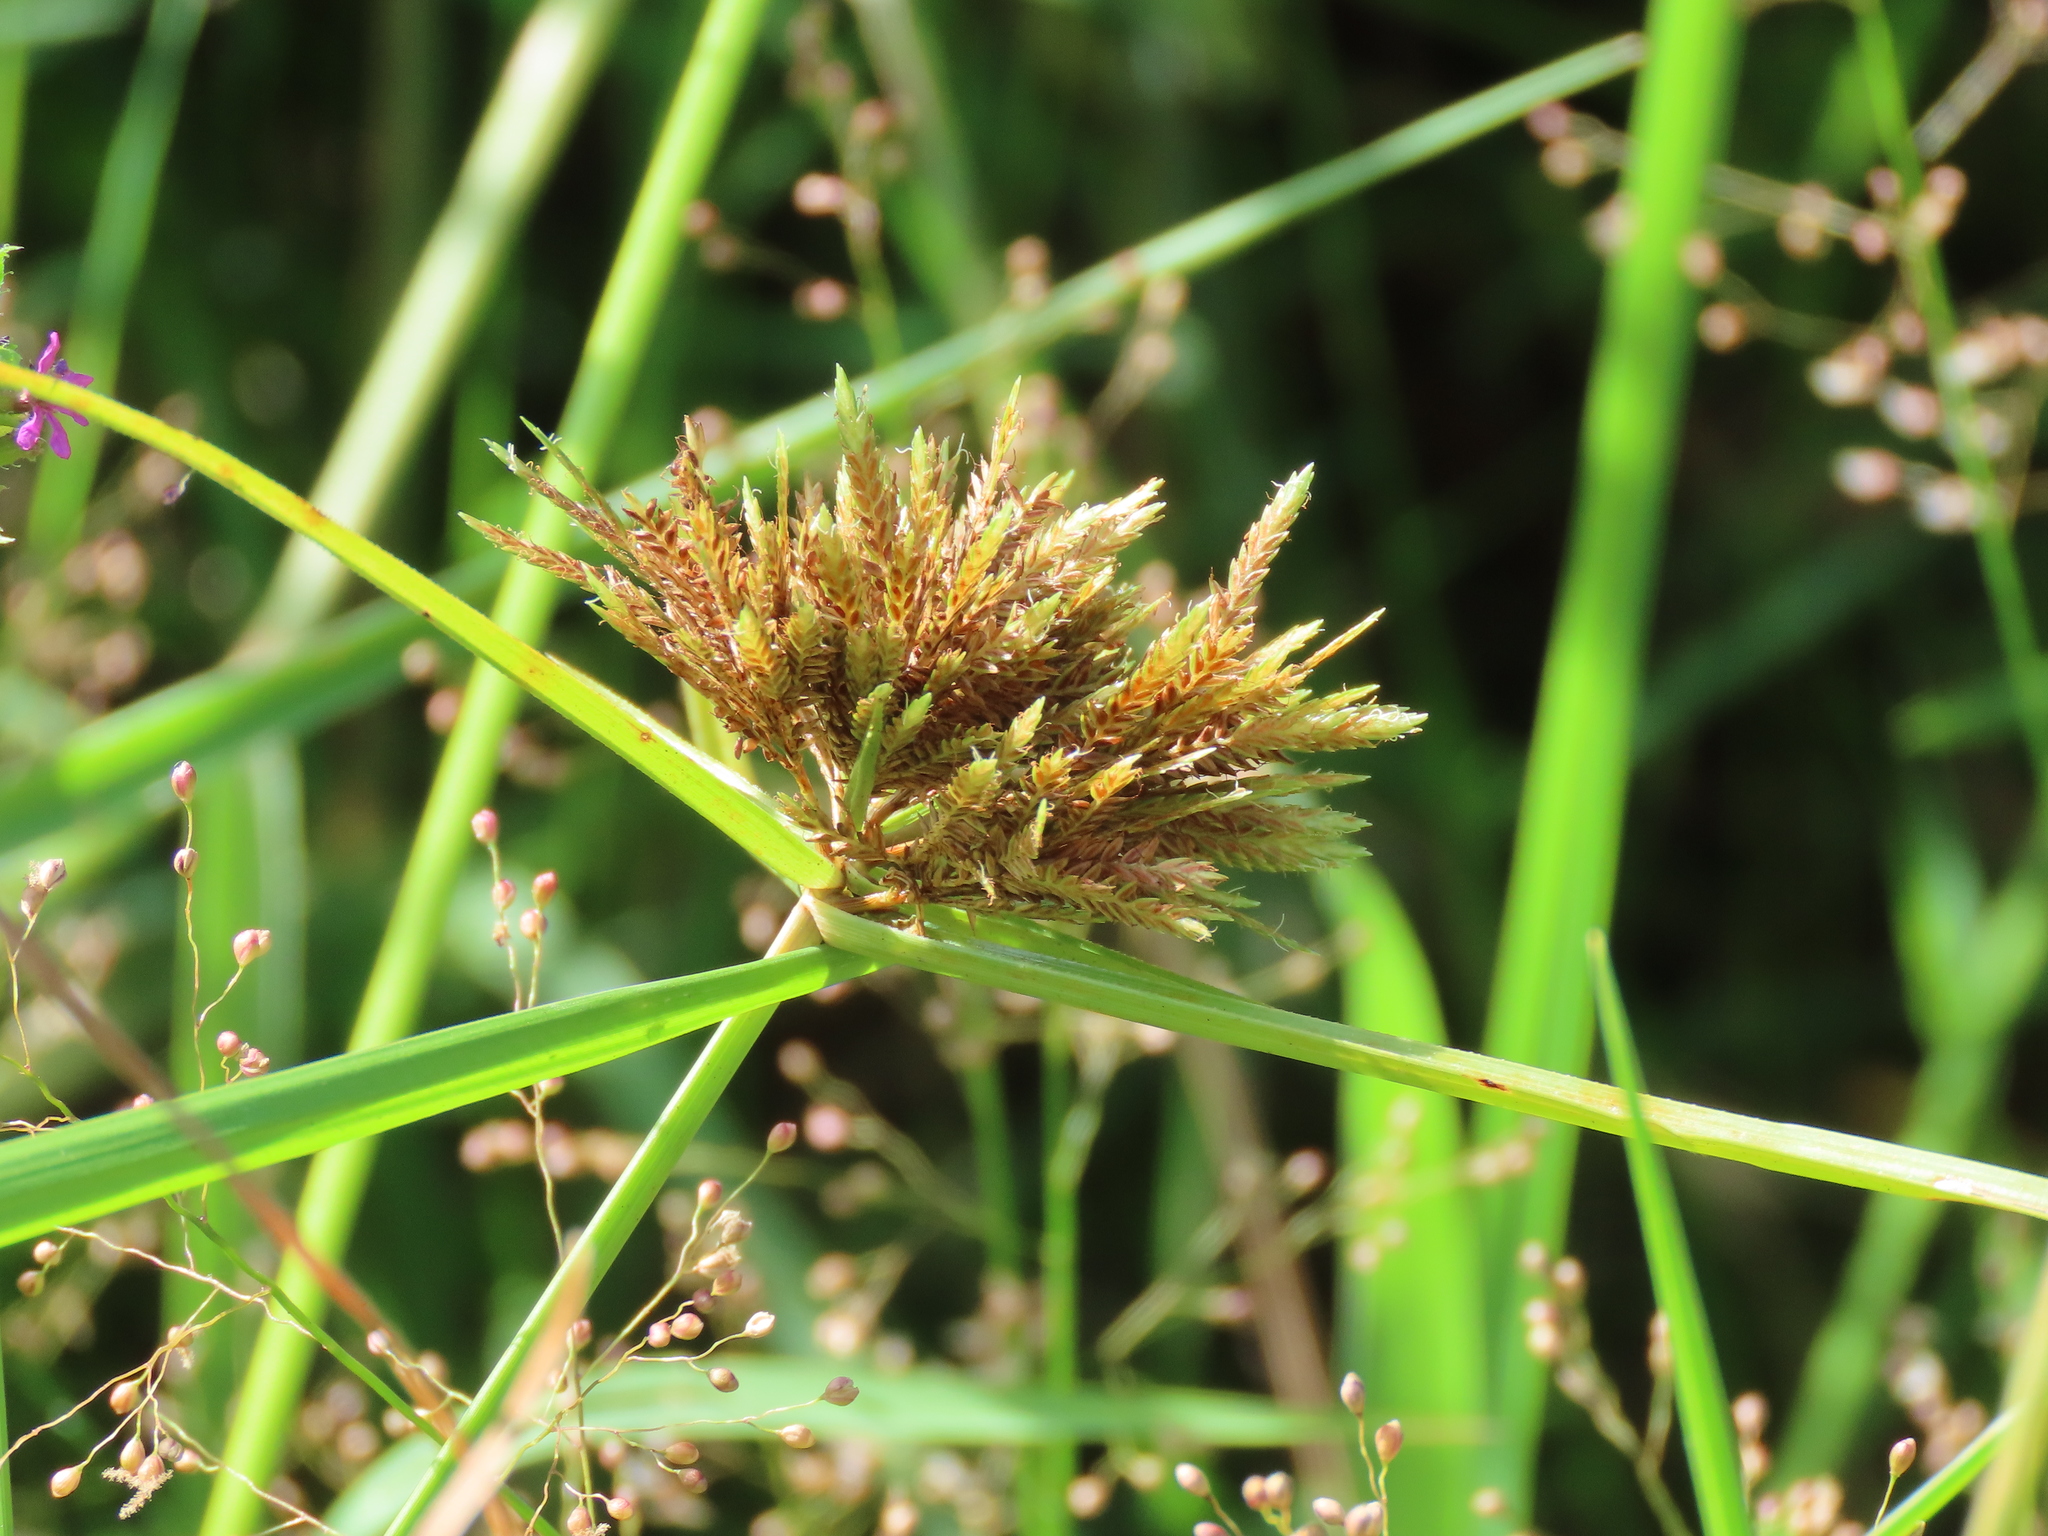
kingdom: Plantae
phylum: Tracheophyta
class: Liliopsida
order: Poales
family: Cyperaceae
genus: Cyperus
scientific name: Cyperus polystachyos
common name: Bunchy flat sedge
